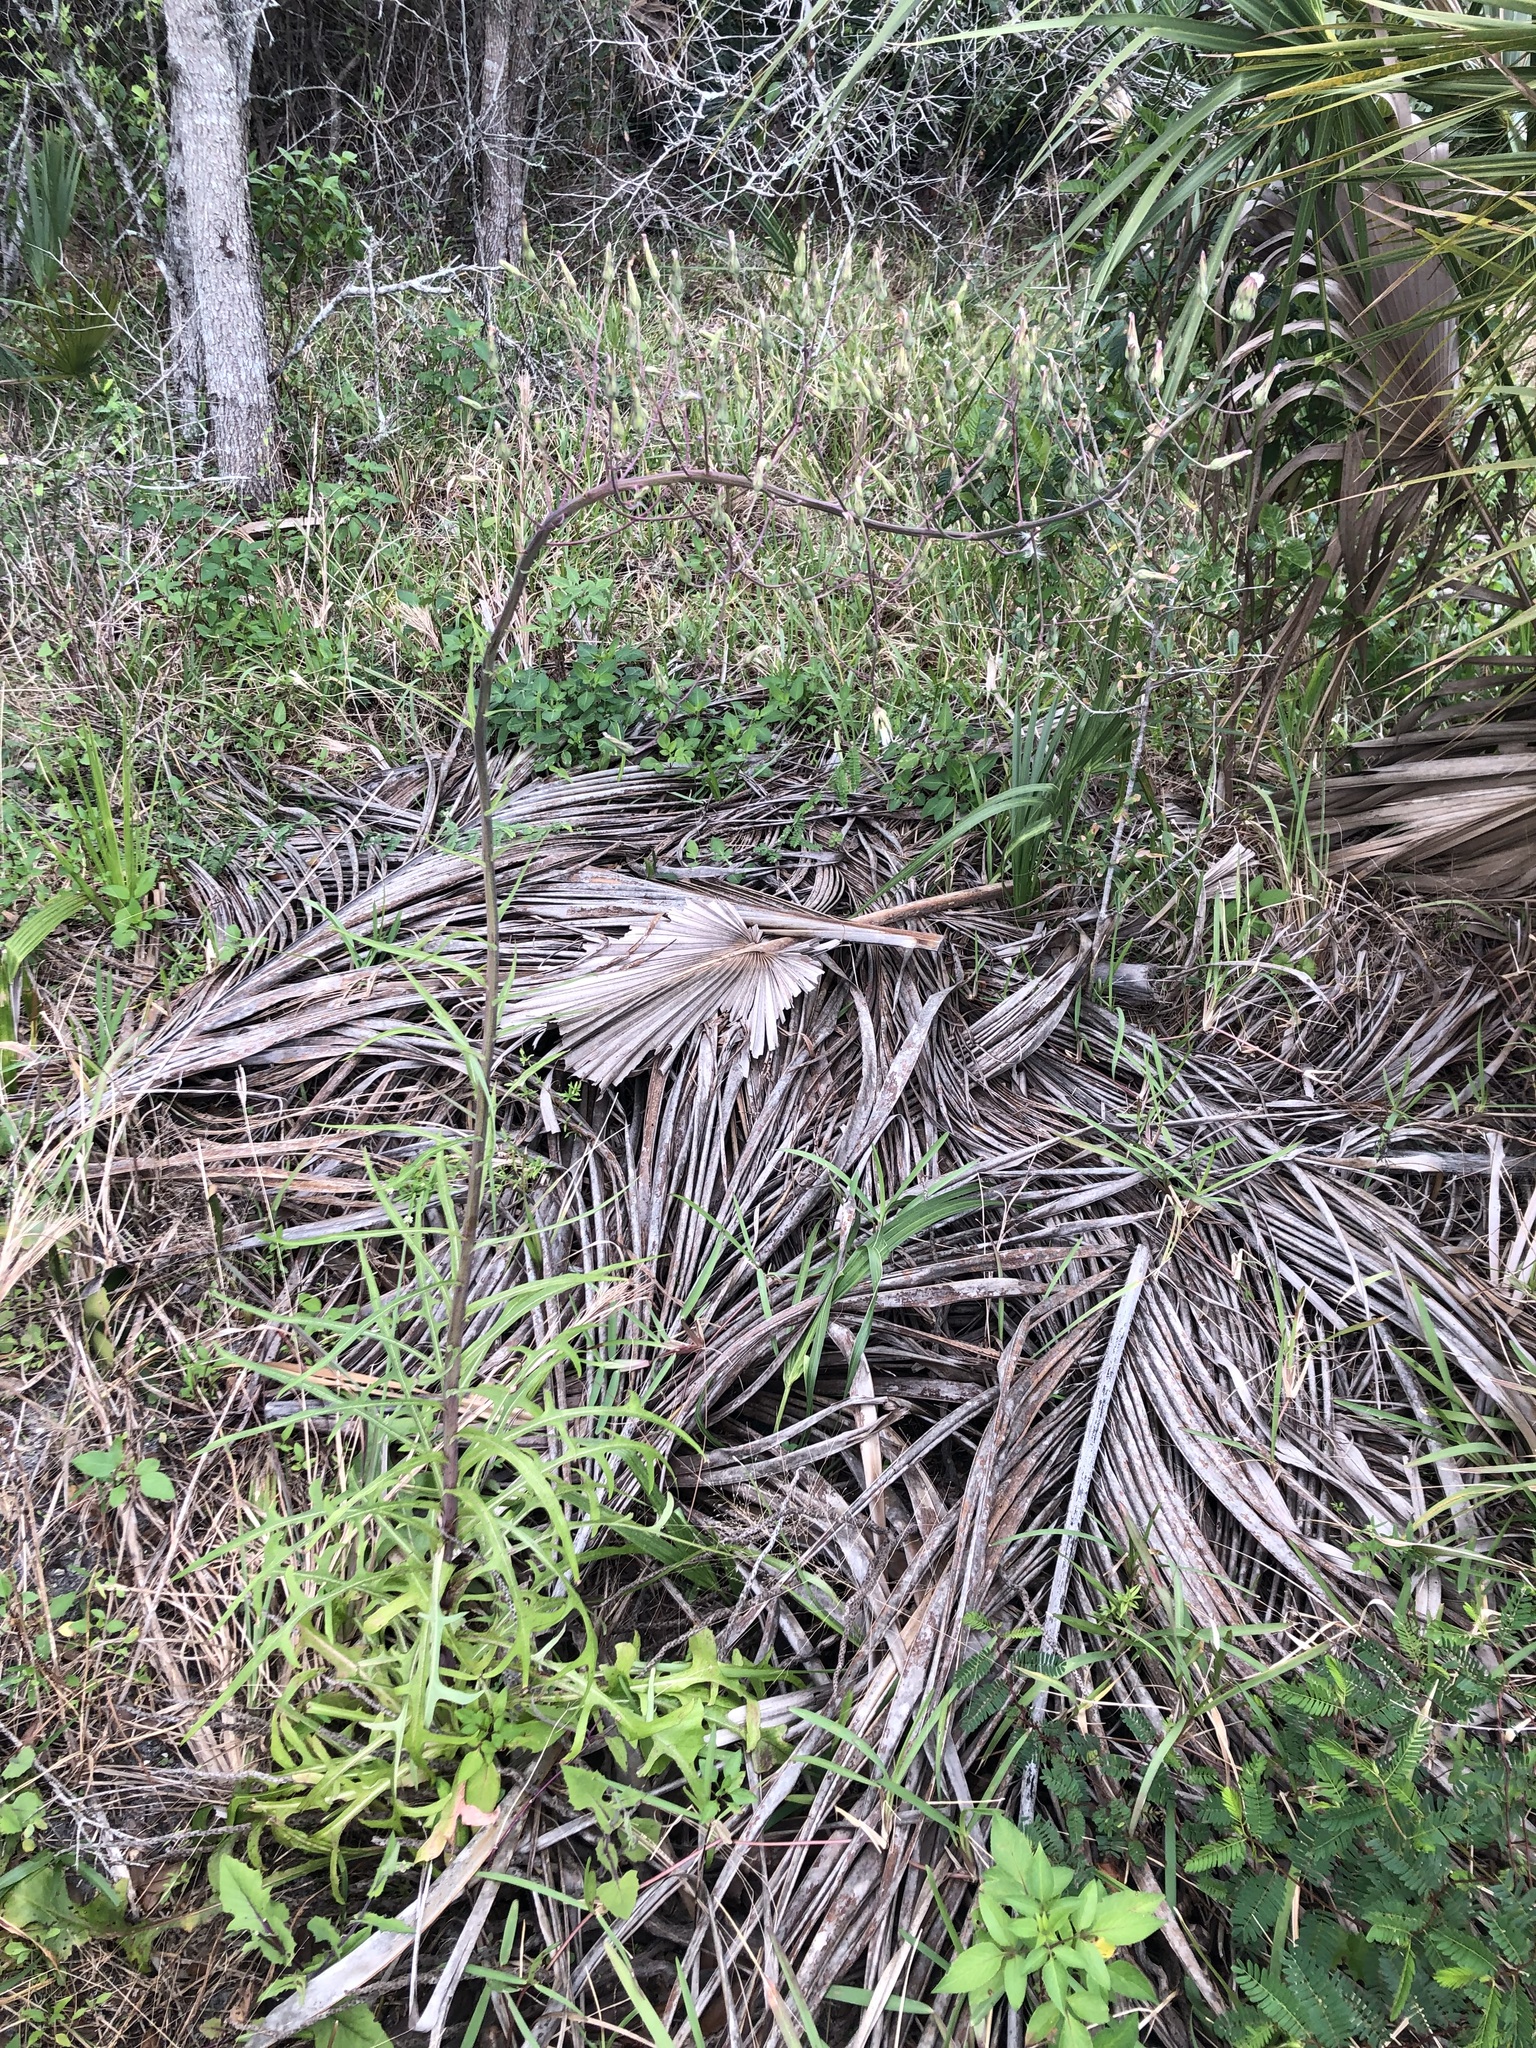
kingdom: Plantae
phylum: Tracheophyta
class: Magnoliopsida
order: Asterales
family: Asteraceae
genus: Lactuca
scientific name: Lactuca graminifolia
